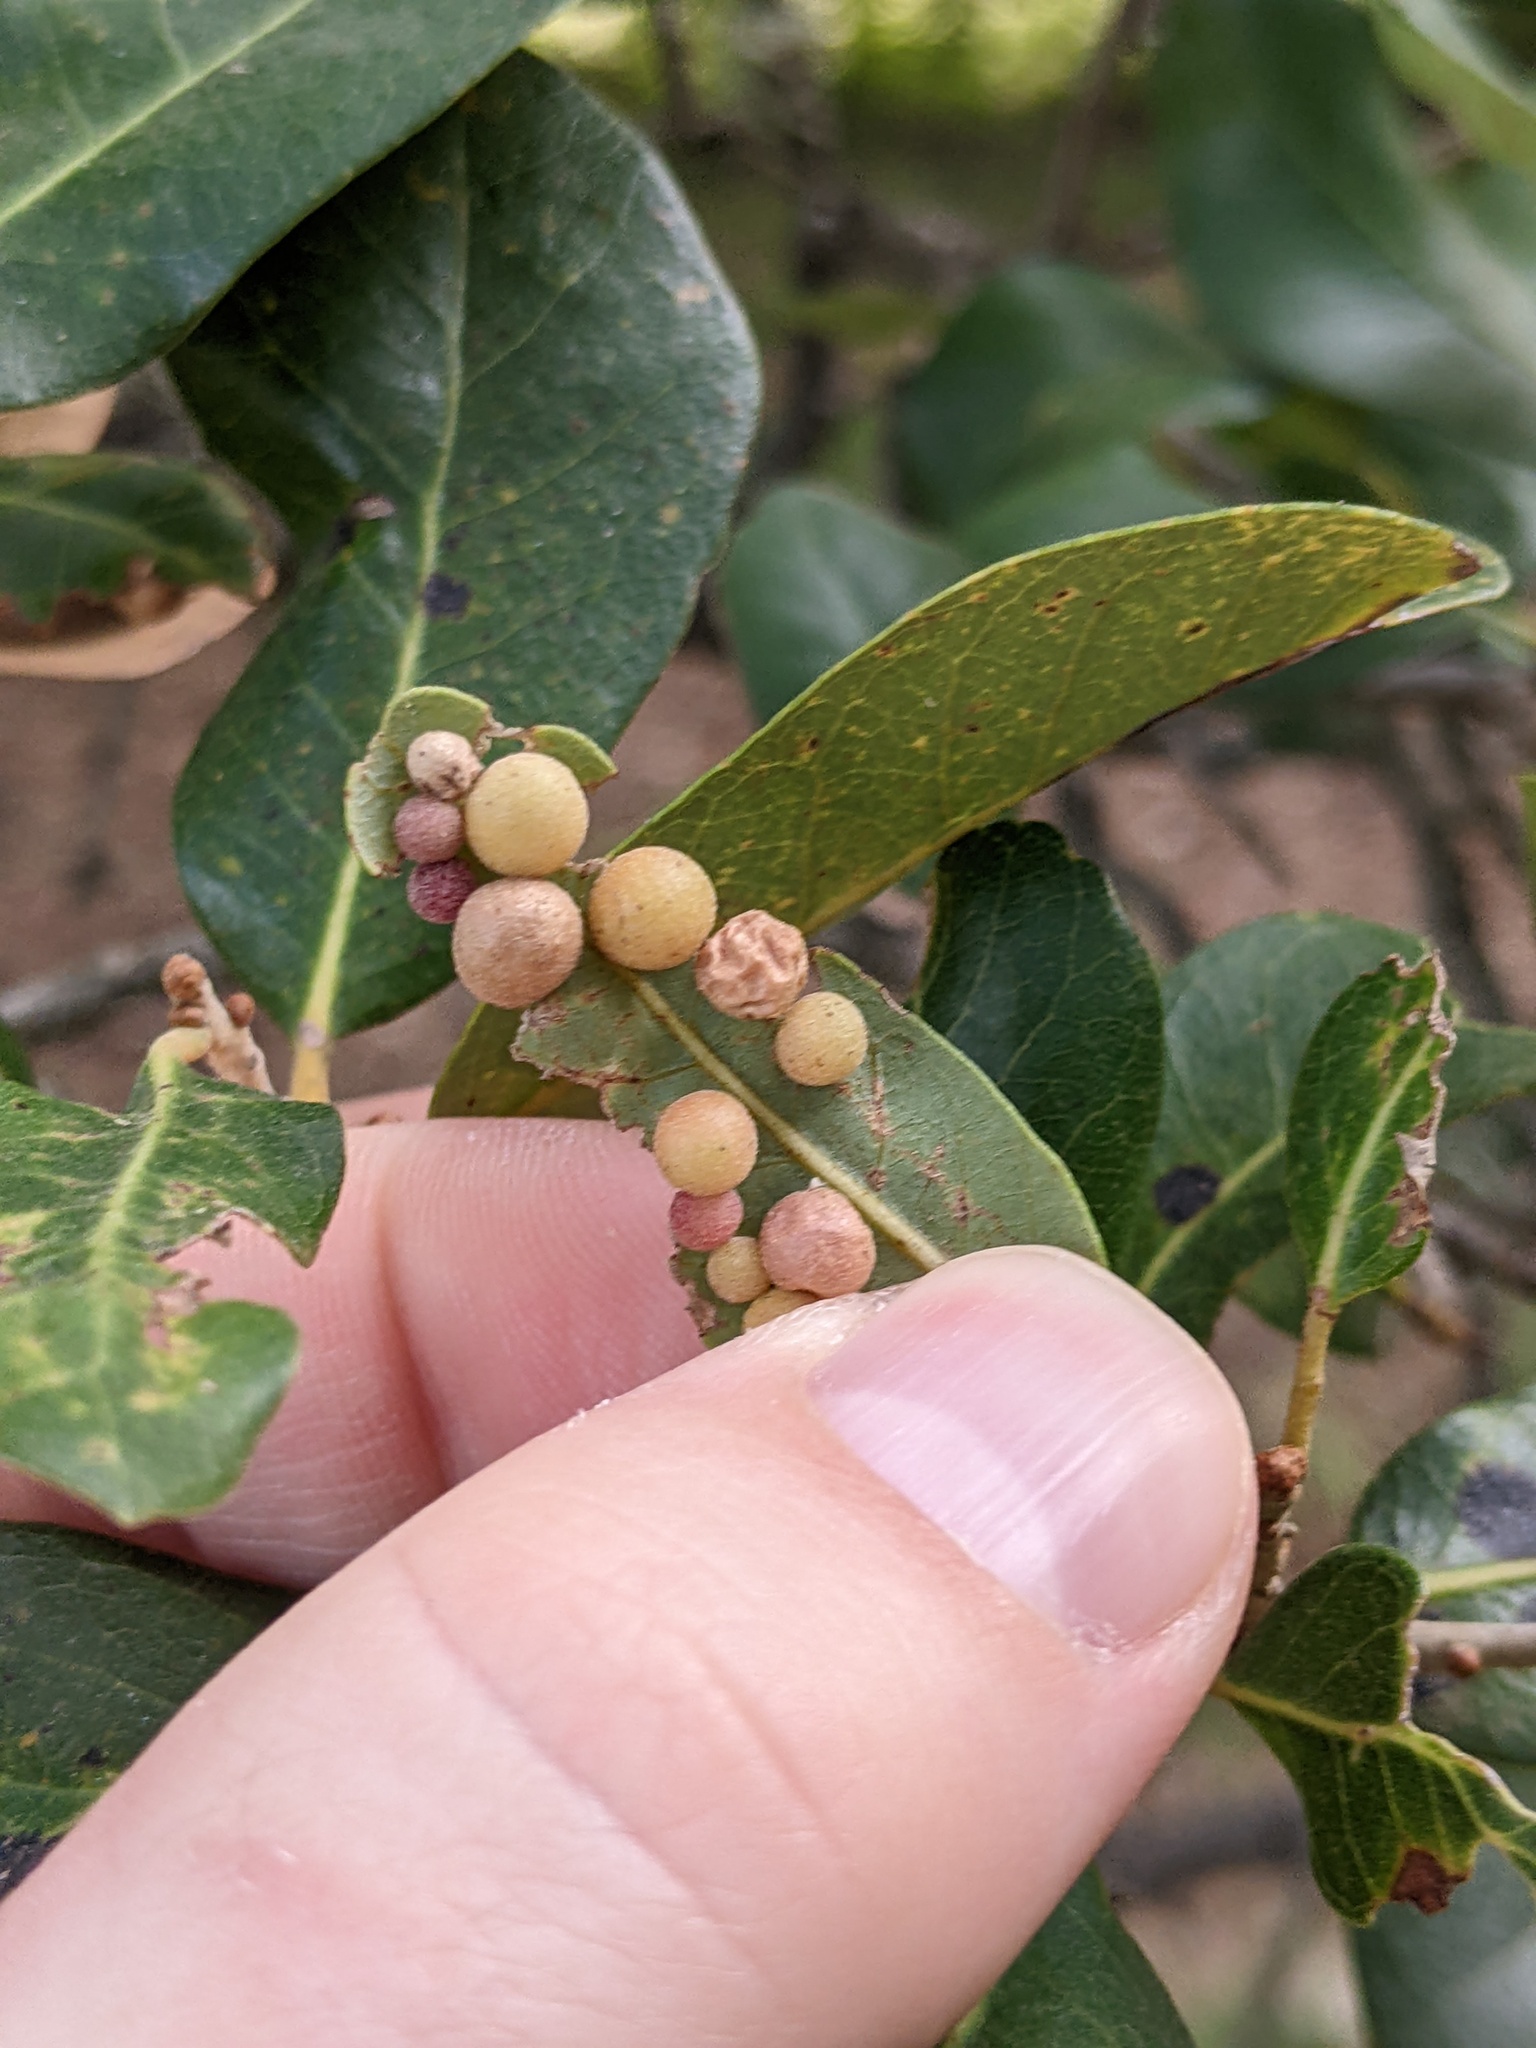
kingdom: Animalia
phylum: Arthropoda
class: Insecta
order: Hymenoptera
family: Cynipidae
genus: Belonocnema
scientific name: Belonocnema kinseyi
